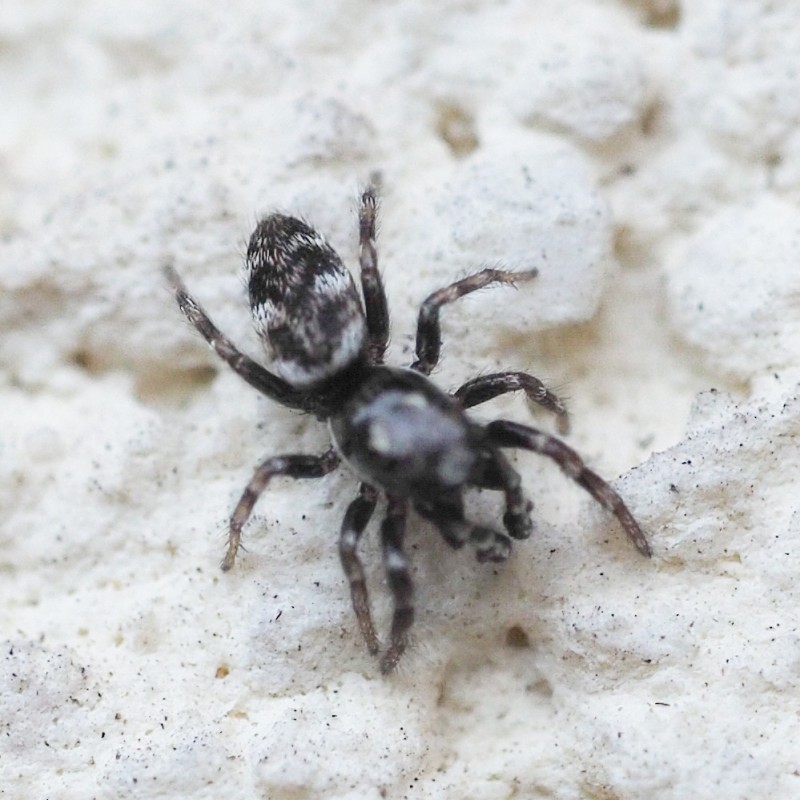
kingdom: Animalia
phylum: Arthropoda
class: Arachnida
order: Araneae
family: Salticidae
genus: Salticus
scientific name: Salticus zebraneus
